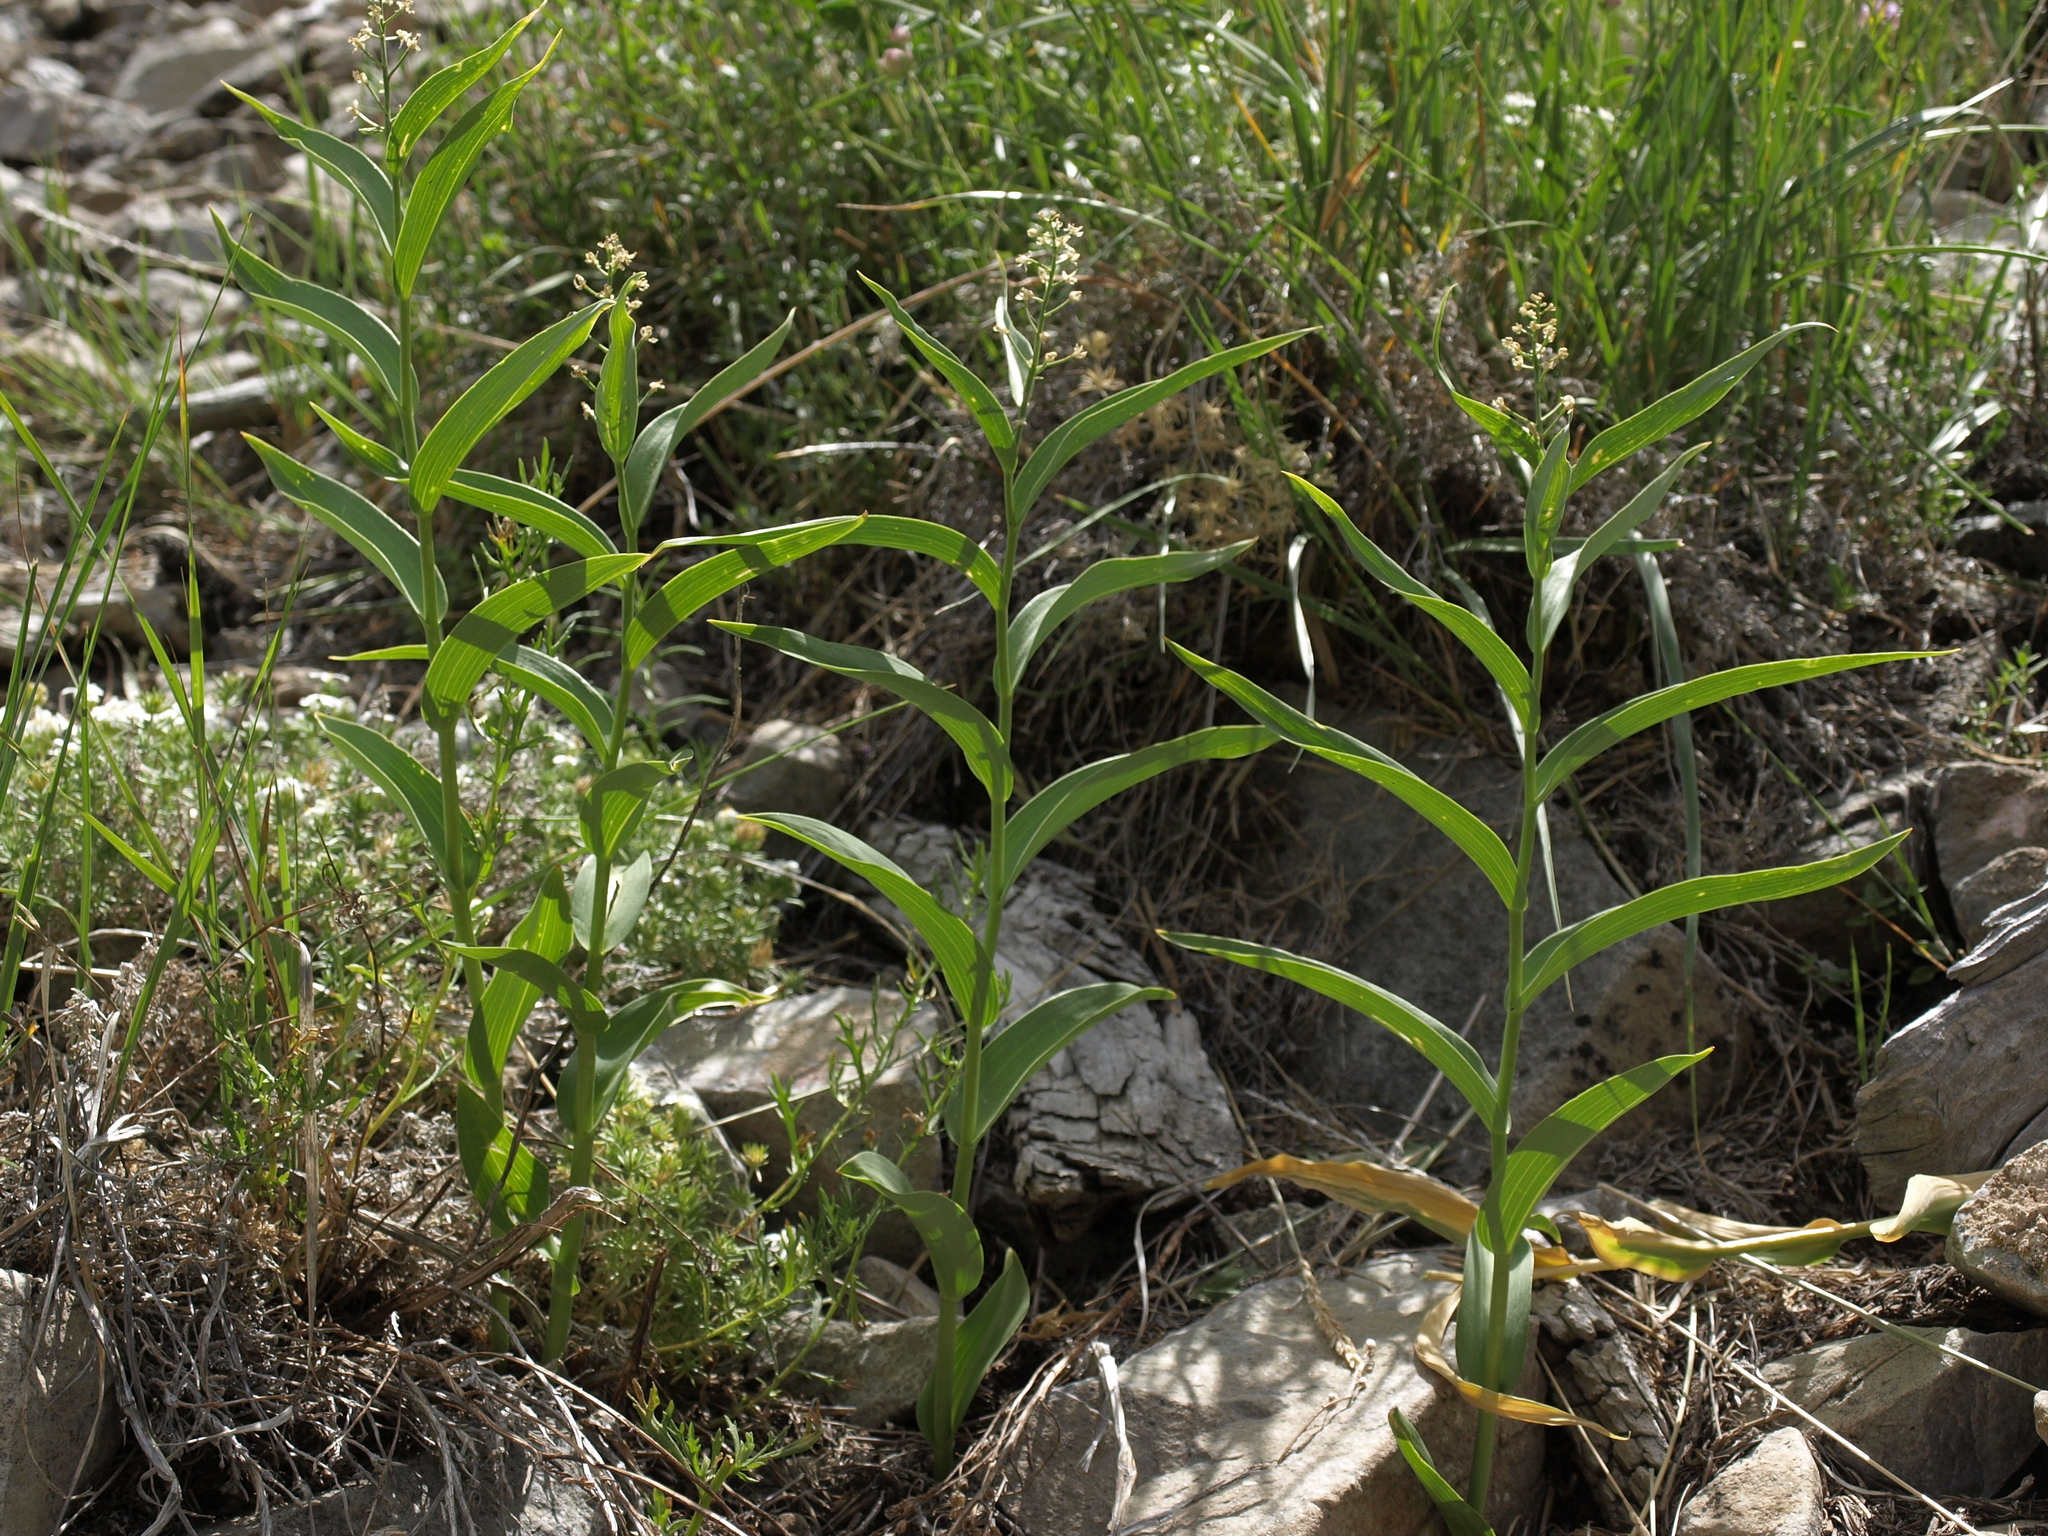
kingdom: Plantae
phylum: Tracheophyta
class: Liliopsida
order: Asparagales
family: Asparagaceae
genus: Maianthemum
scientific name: Maianthemum stellatum
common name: Little false solomon's seal
